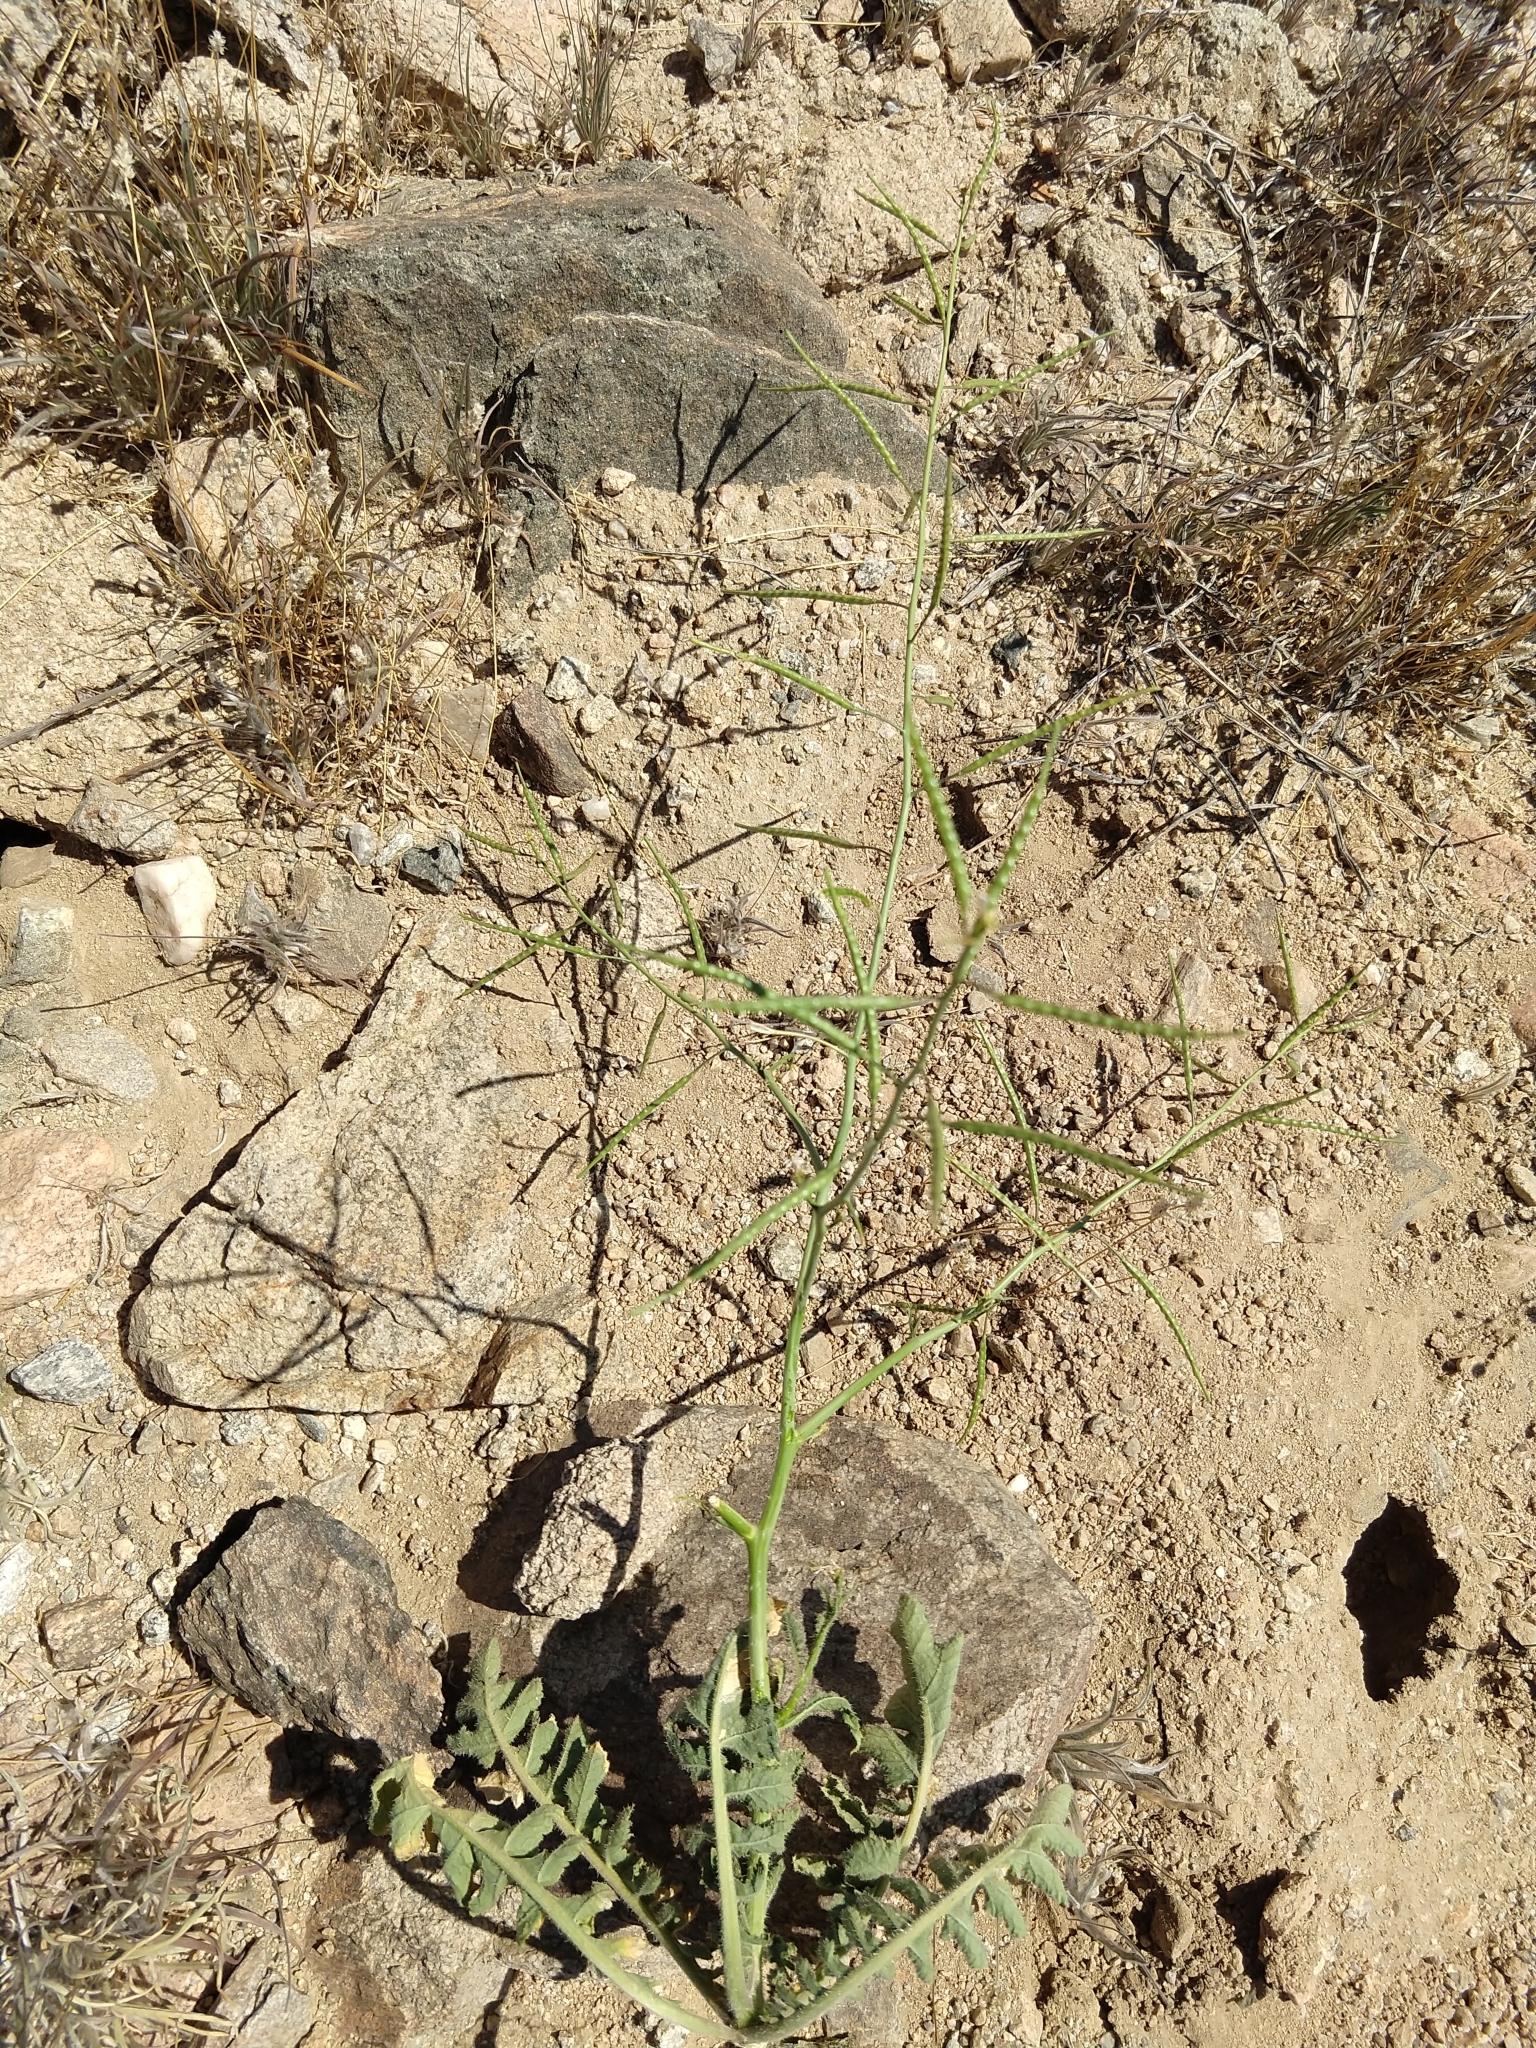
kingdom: Plantae
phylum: Tracheophyta
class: Magnoliopsida
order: Brassicales
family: Brassicaceae
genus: Brassica
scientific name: Brassica tournefortii
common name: Pale cabbage
